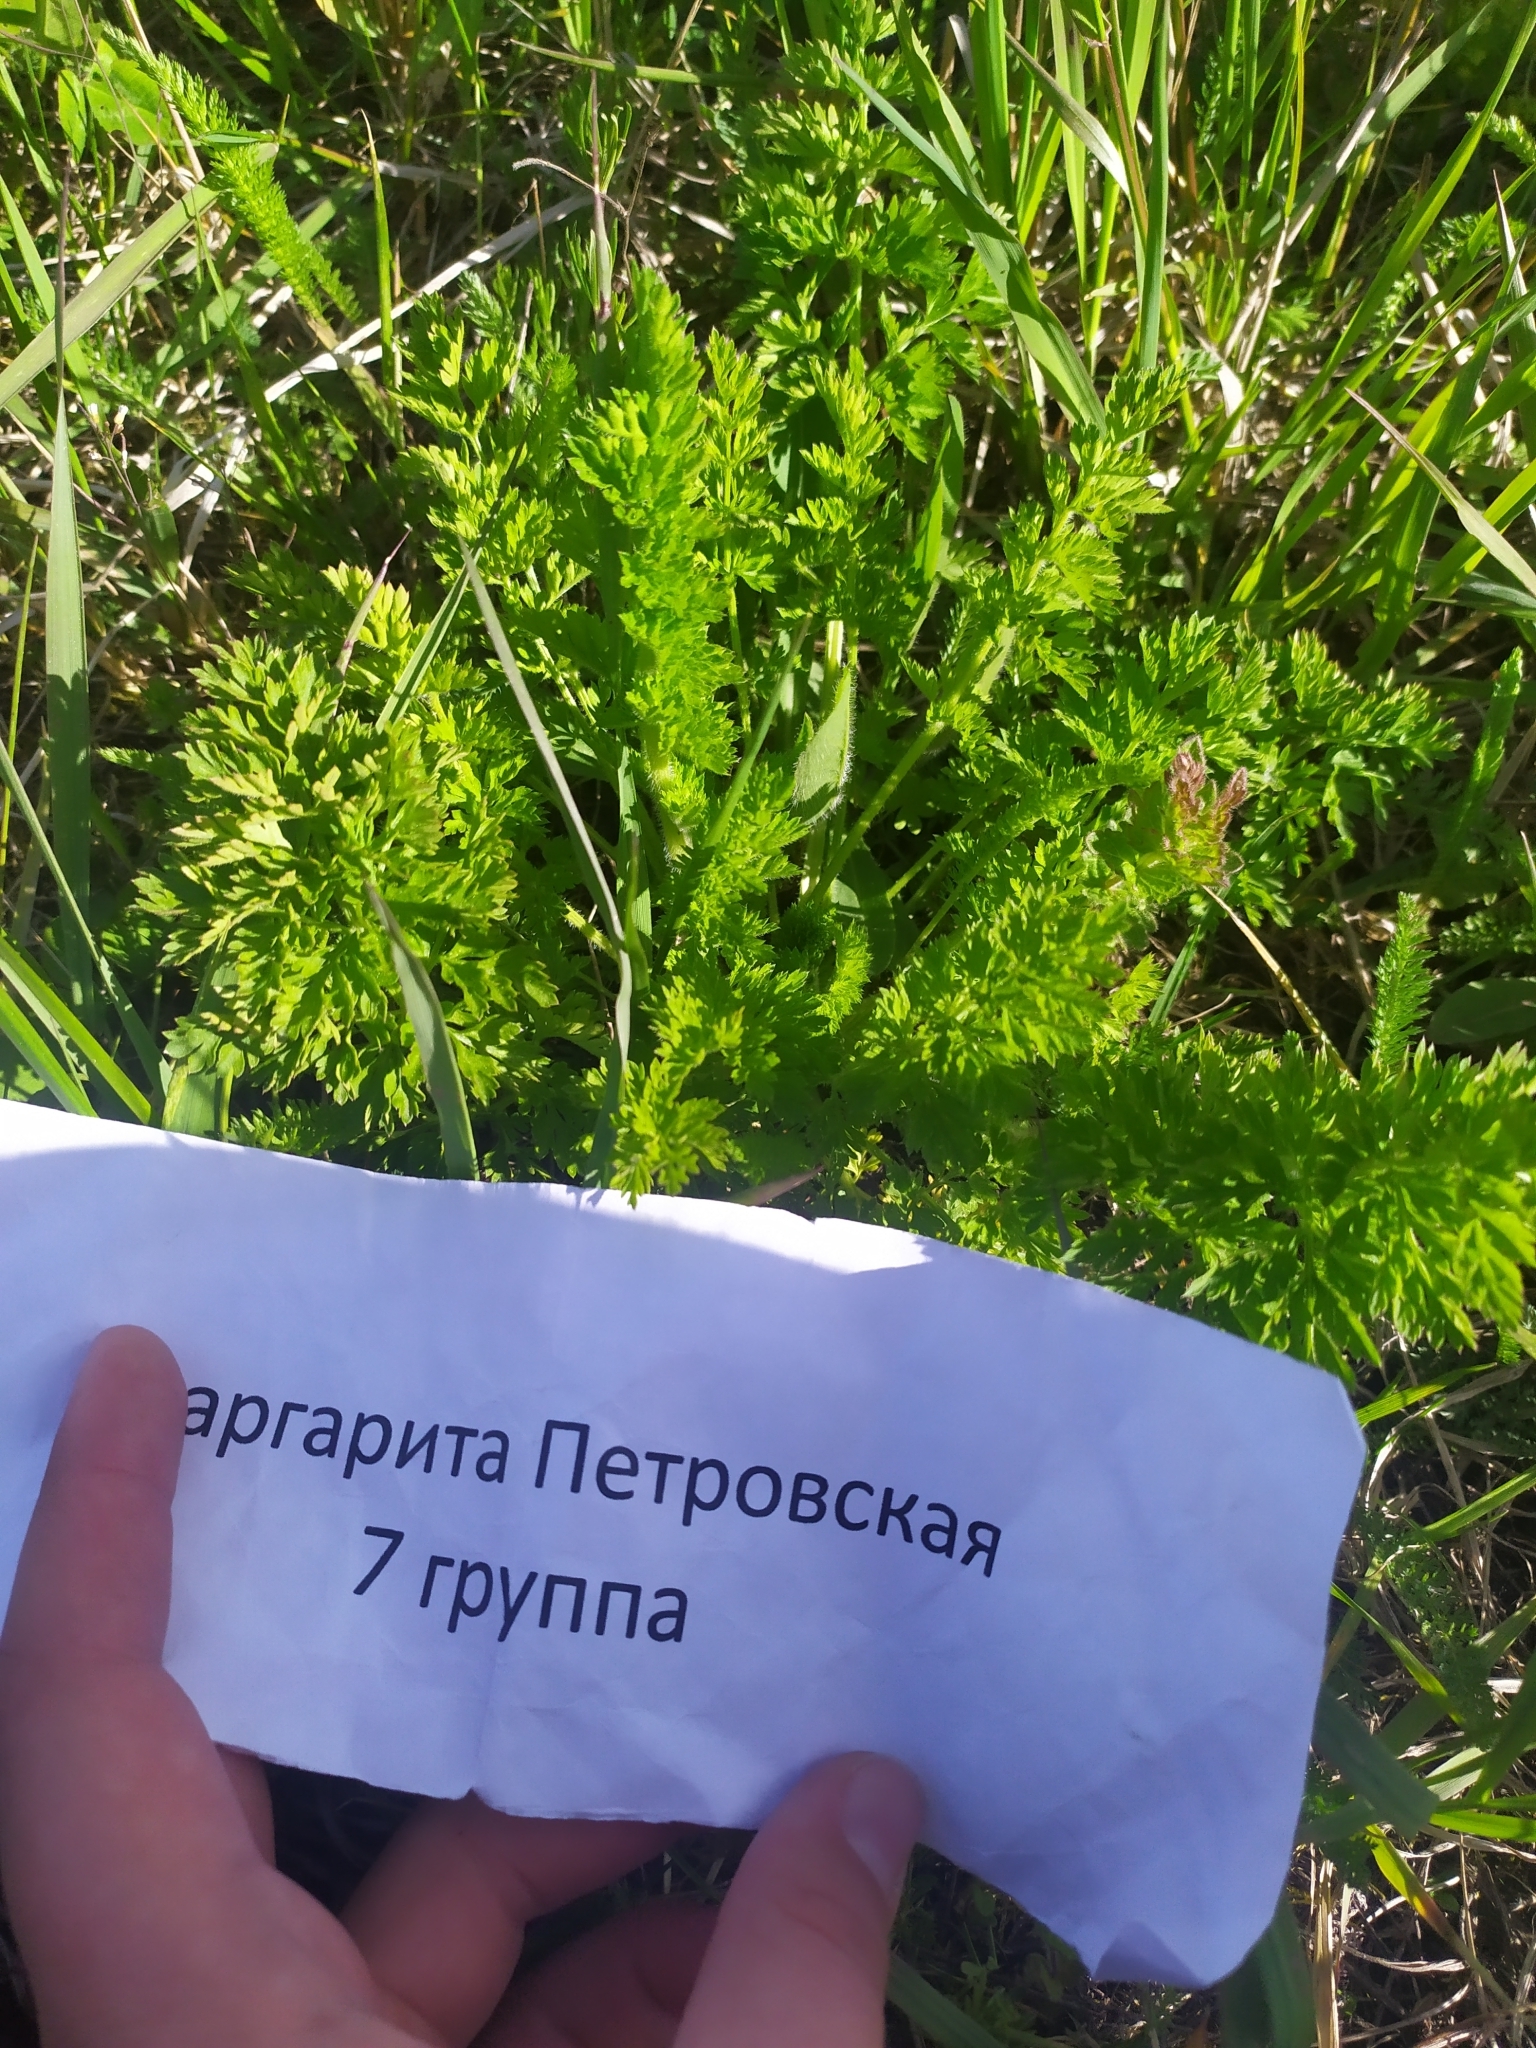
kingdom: Plantae
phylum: Tracheophyta
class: Magnoliopsida
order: Apiales
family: Apiaceae
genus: Daucus
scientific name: Daucus carota
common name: Wild carrot
